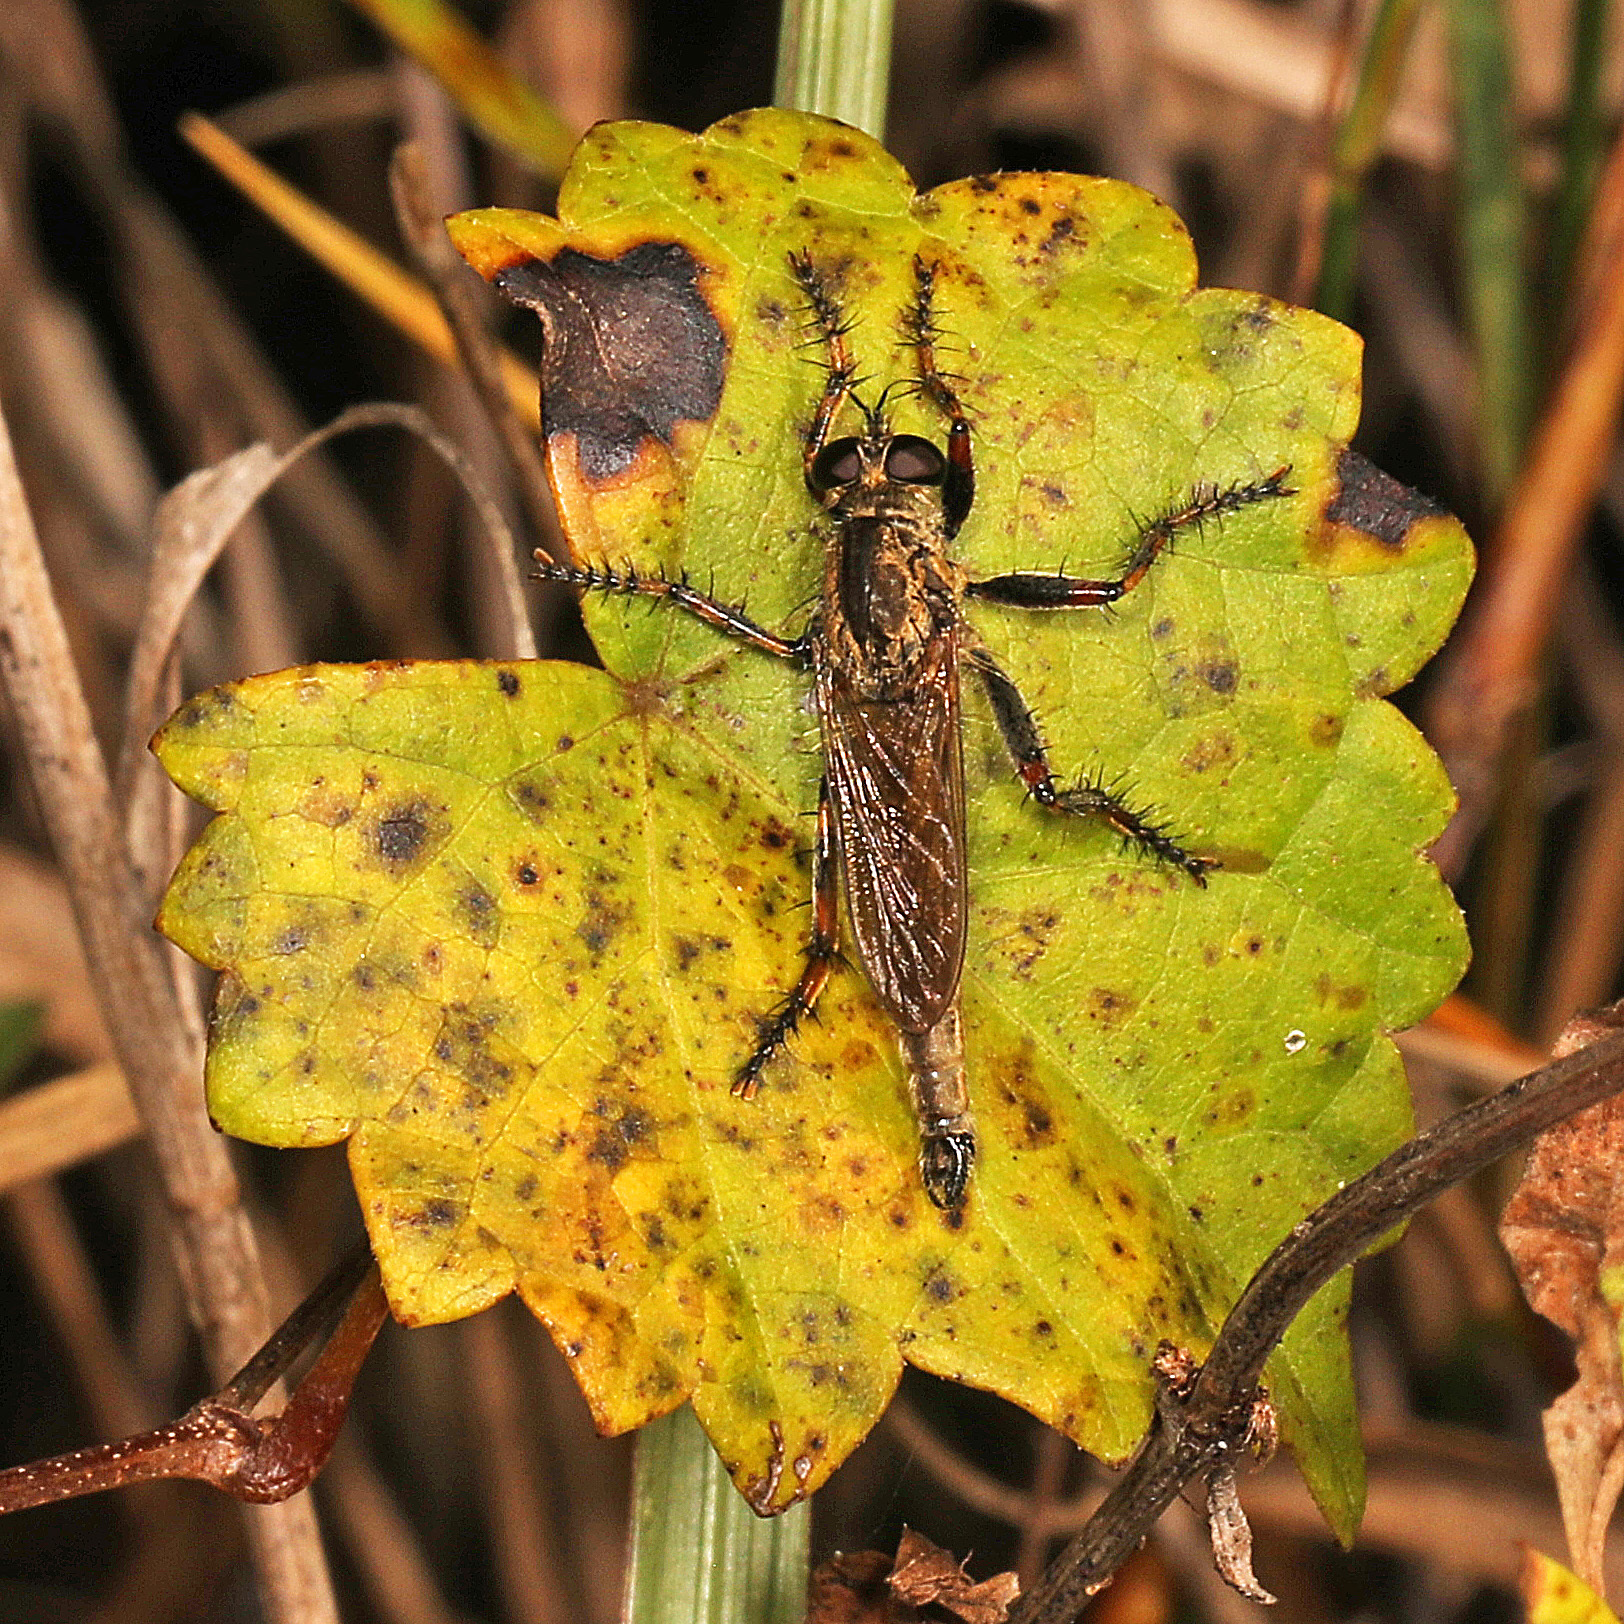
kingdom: Animalia
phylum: Arthropoda
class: Insecta
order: Diptera
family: Asilidae
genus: Machimus
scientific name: Machimus floridensis
